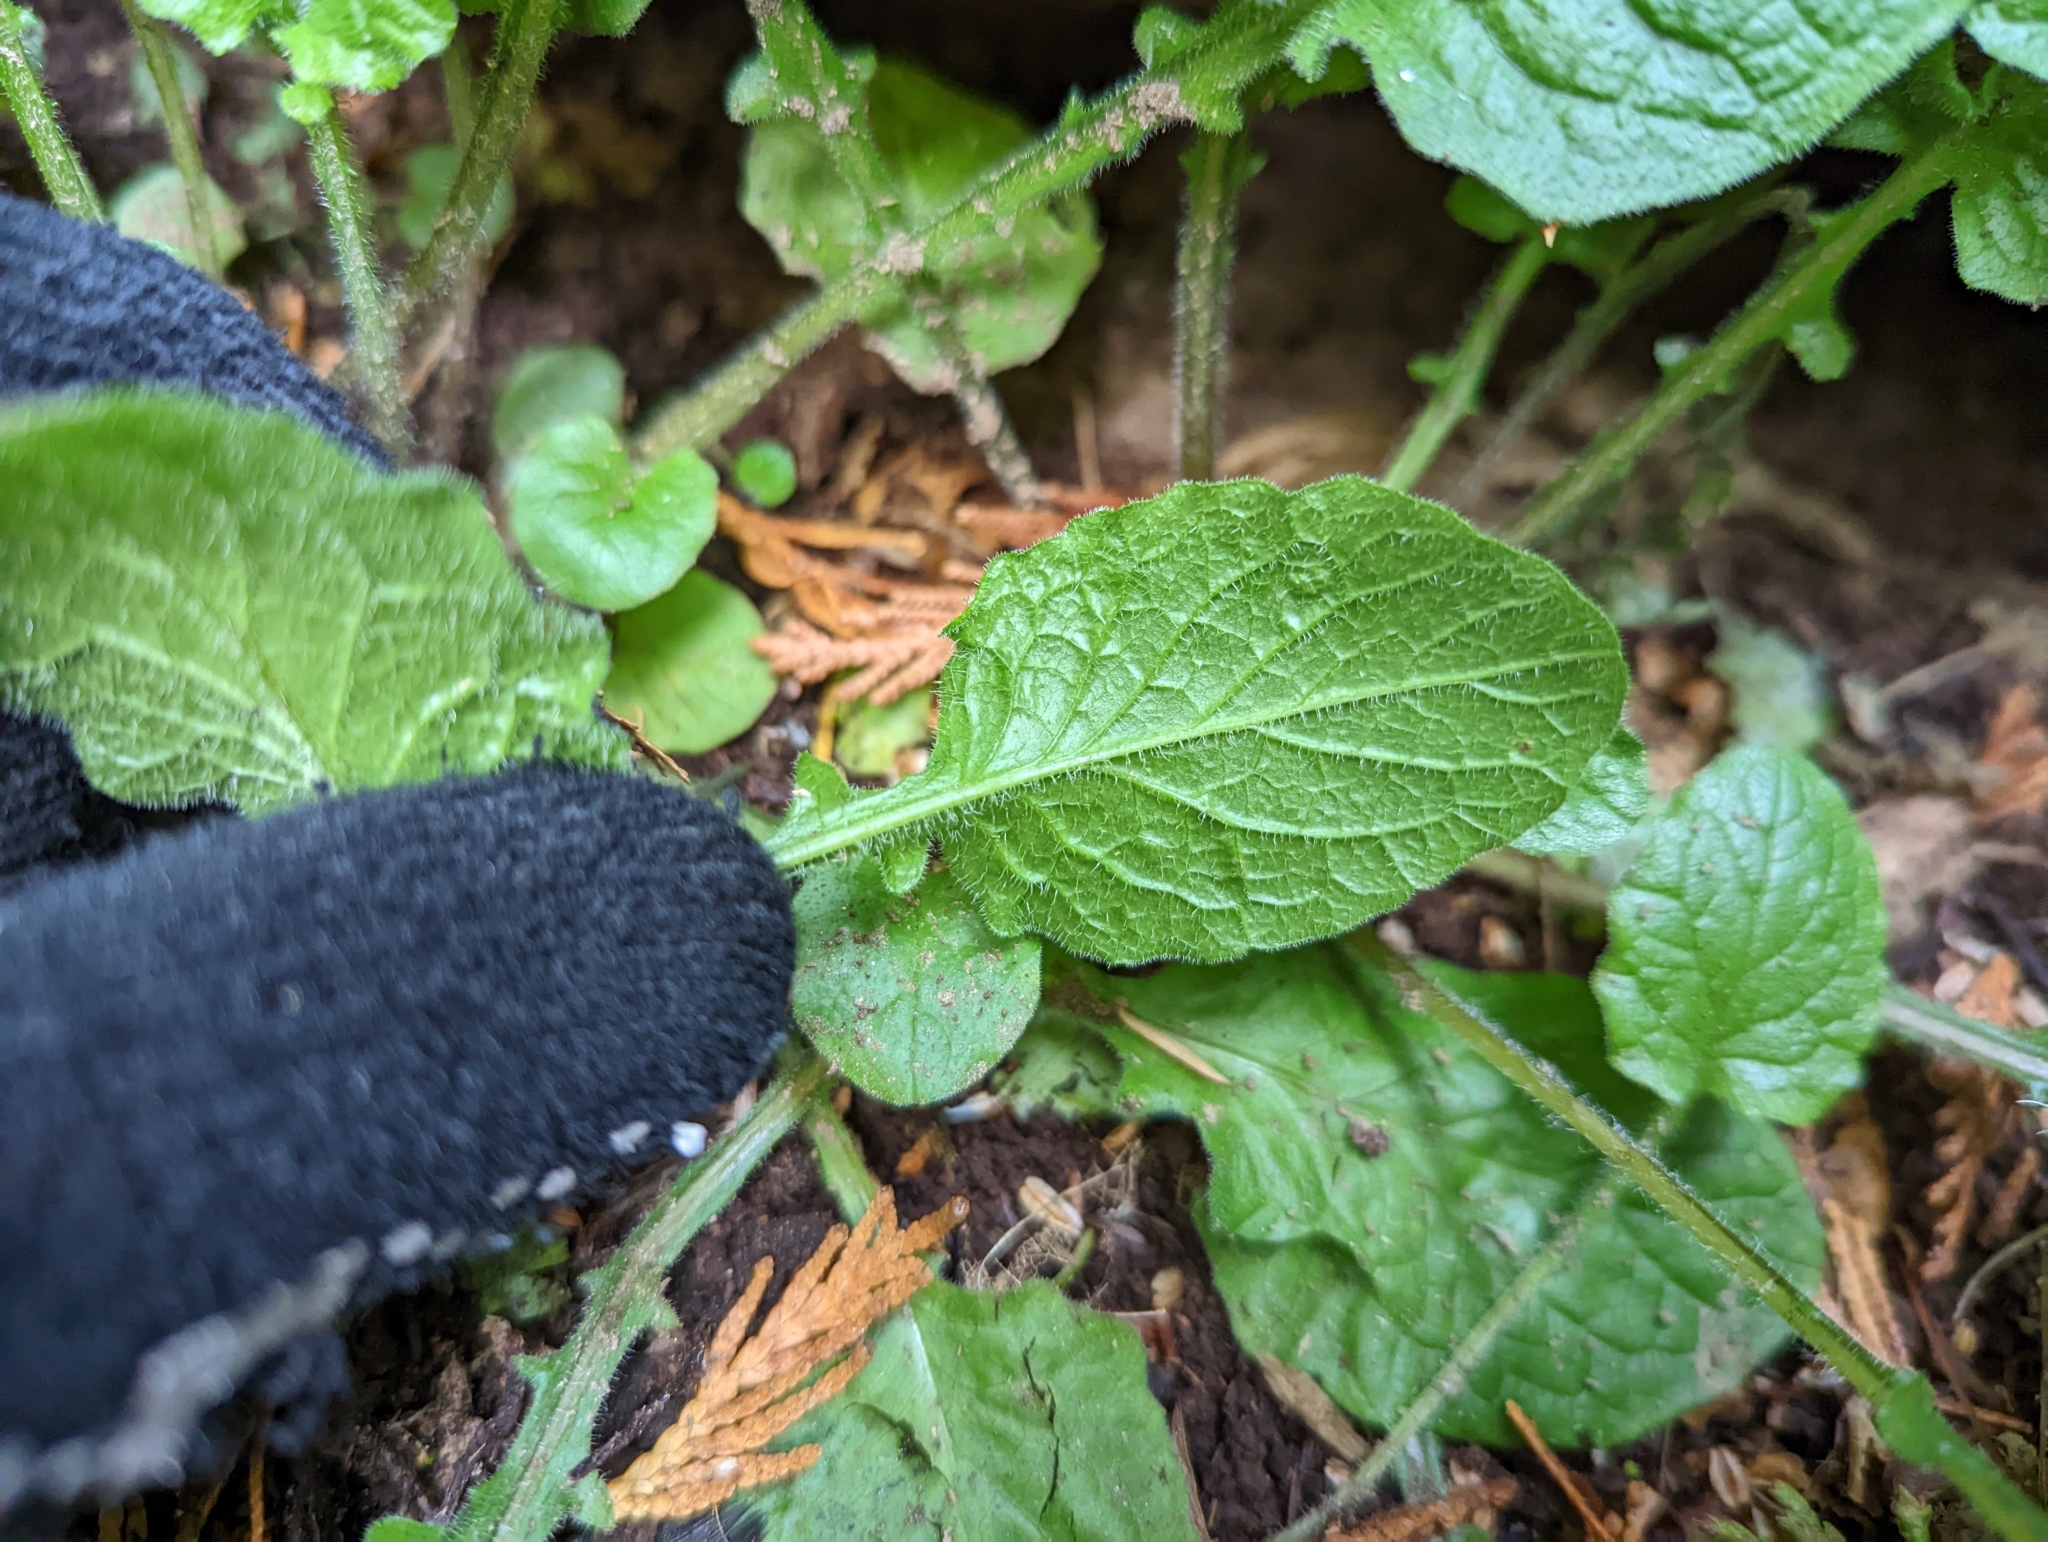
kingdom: Plantae
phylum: Tracheophyta
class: Magnoliopsida
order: Asterales
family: Asteraceae
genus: Lapsana
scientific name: Lapsana communis
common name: Nipplewort
